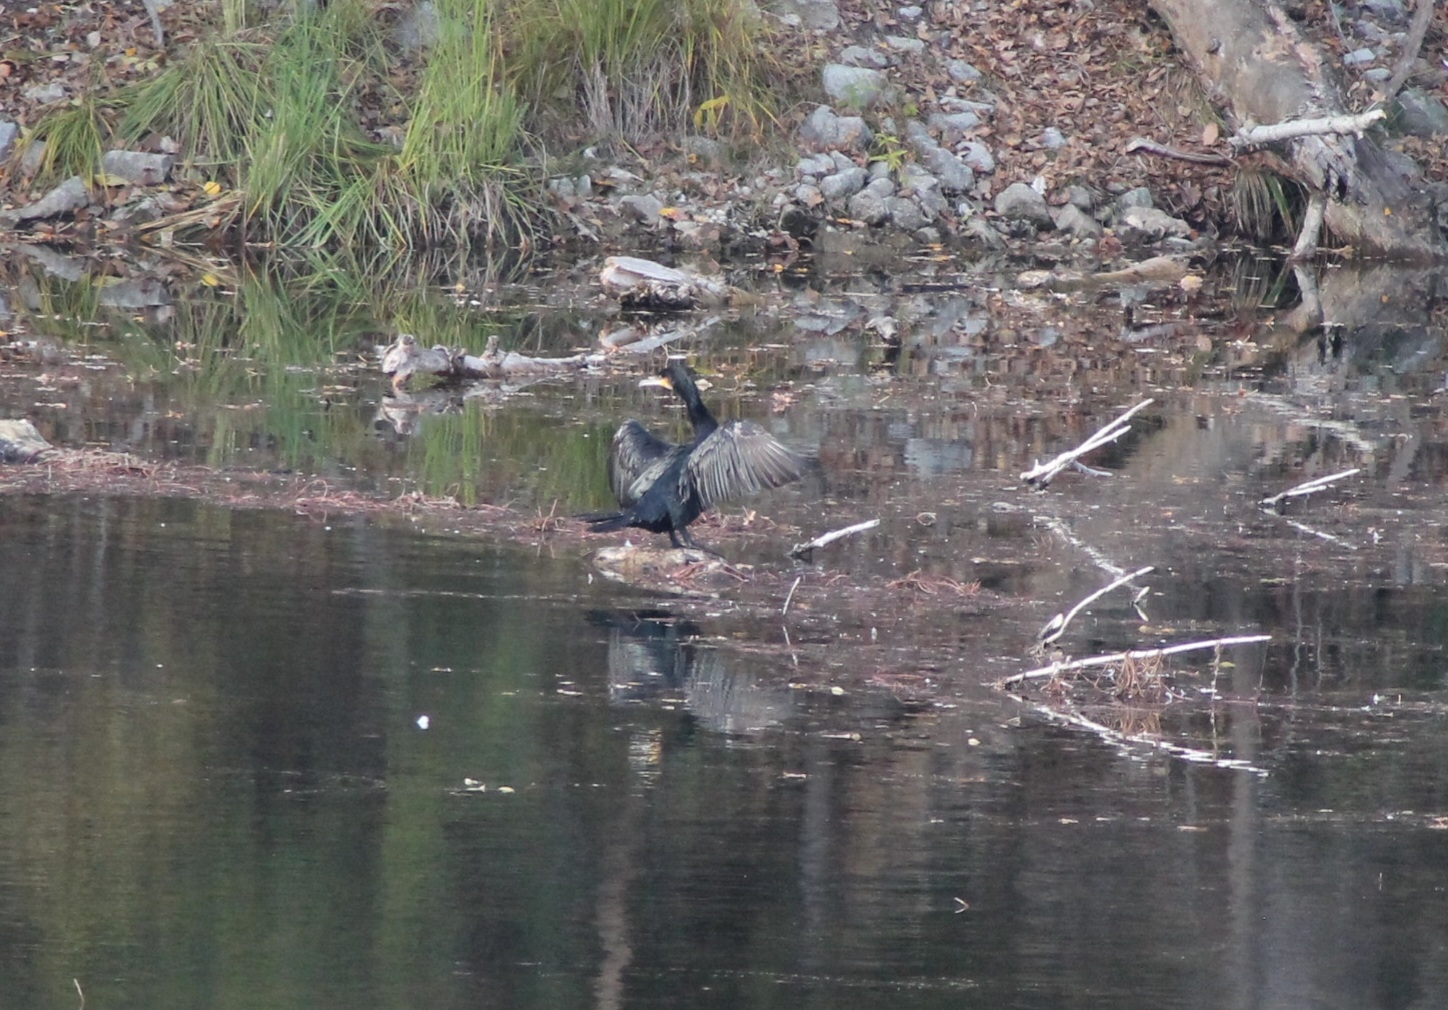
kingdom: Animalia
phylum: Chordata
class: Aves
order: Suliformes
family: Phalacrocoracidae
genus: Phalacrocorax
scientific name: Phalacrocorax carbo
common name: Great cormorant
